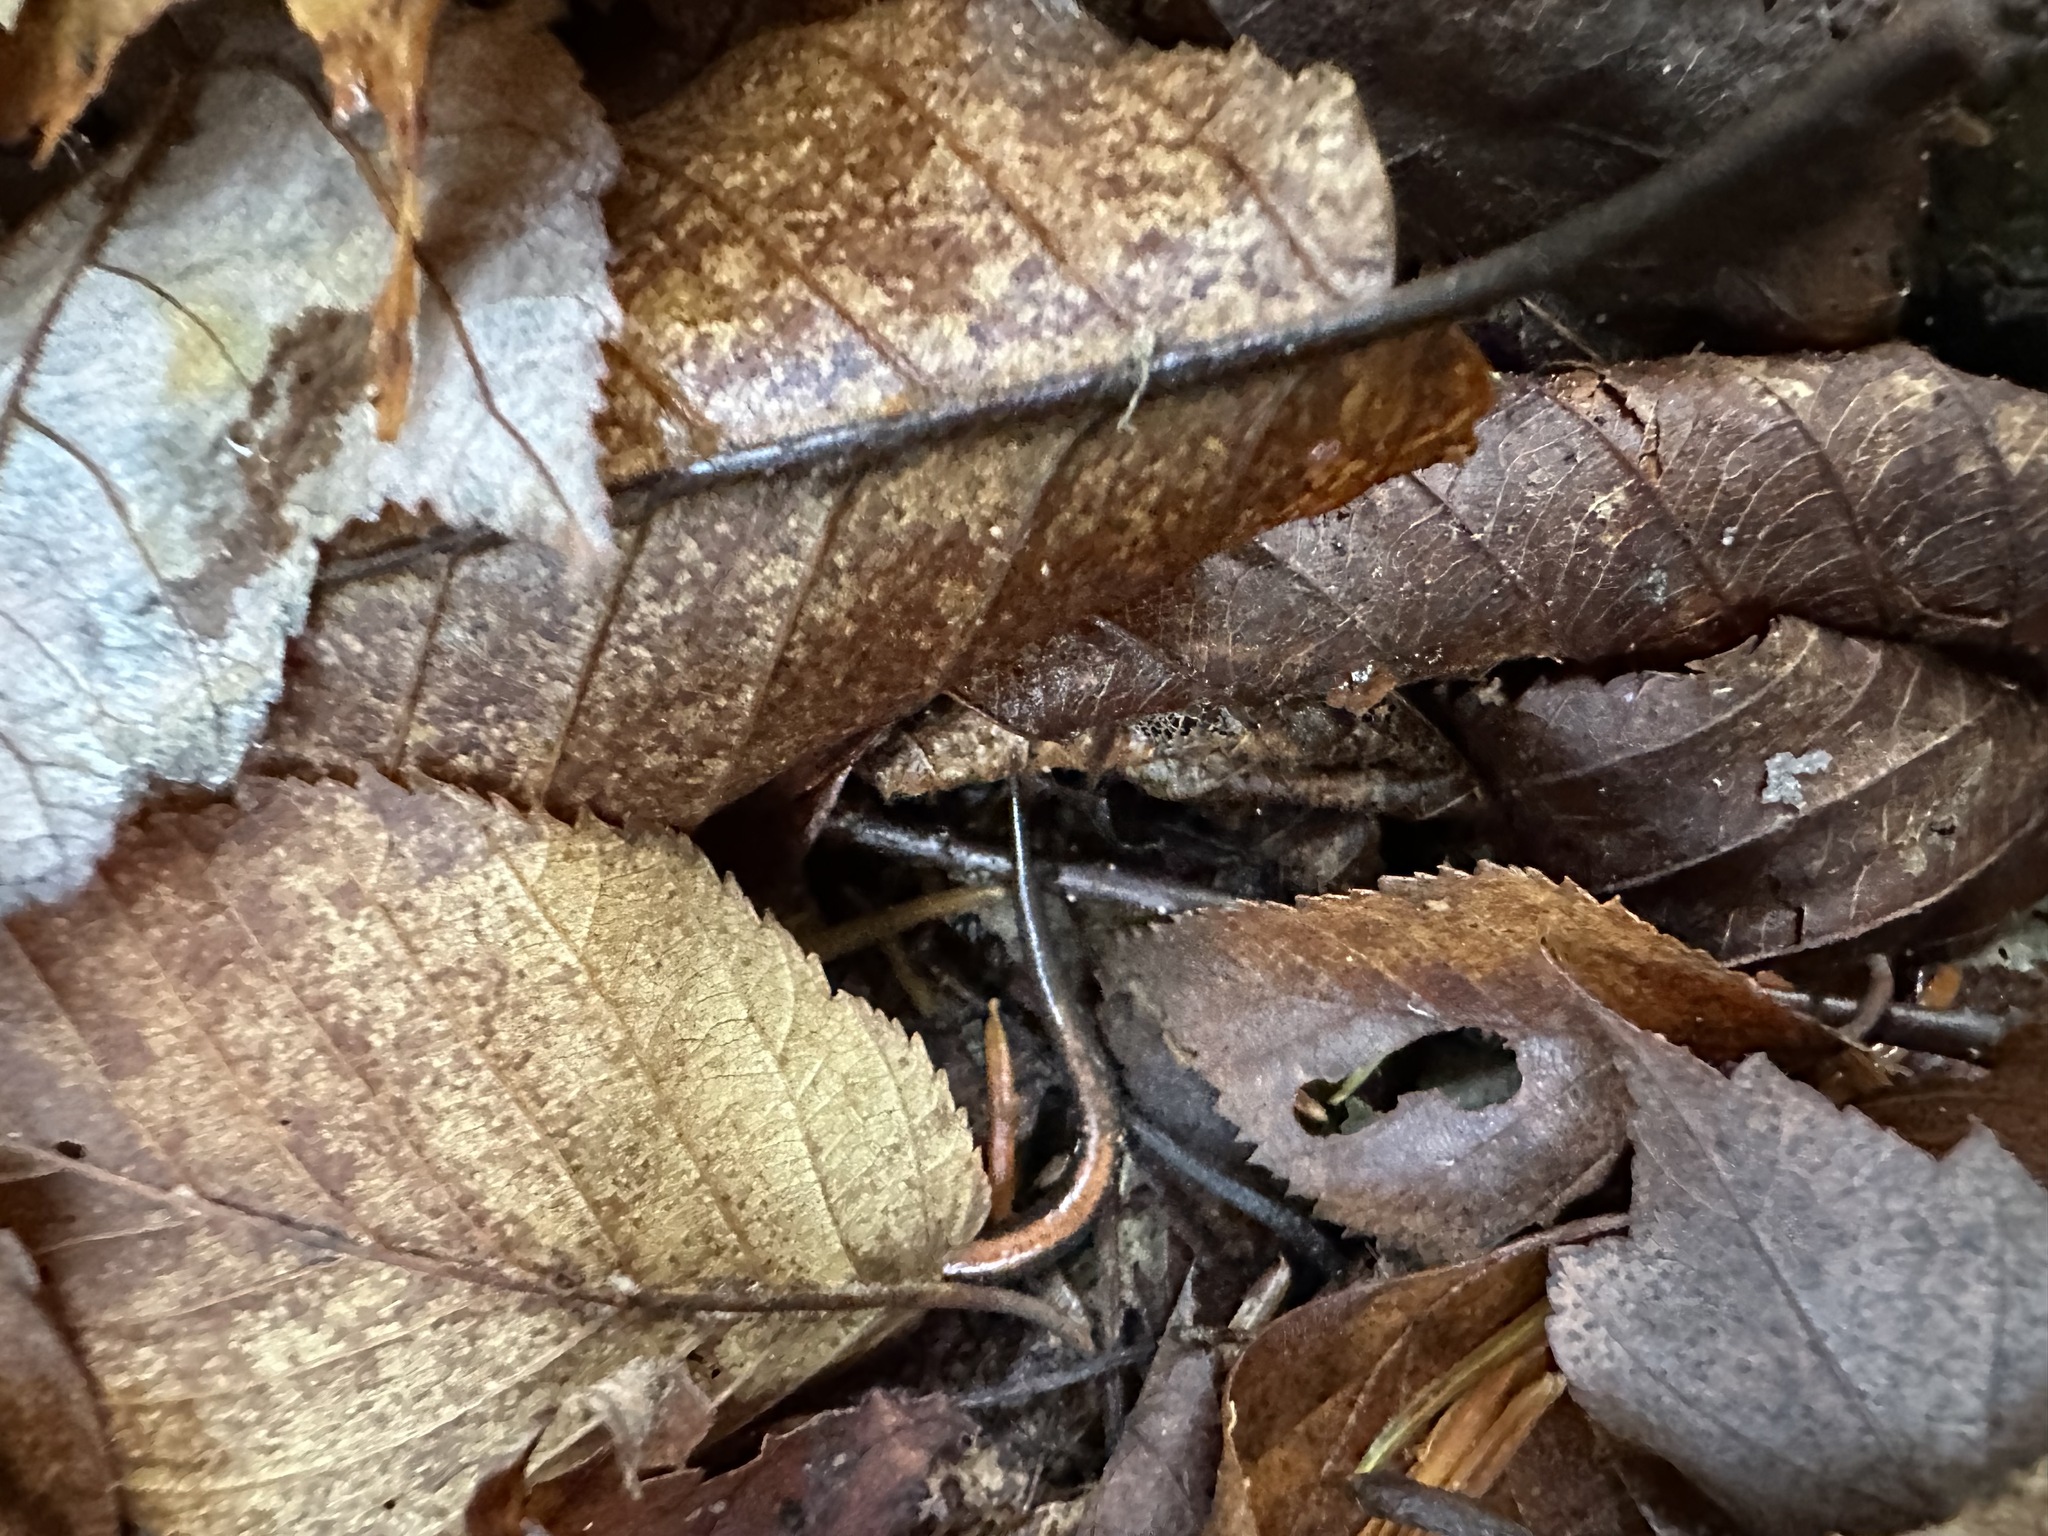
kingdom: Animalia
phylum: Chordata
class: Amphibia
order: Caudata
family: Plethodontidae
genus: Plethodon
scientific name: Plethodon cinereus
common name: Redback salamander
